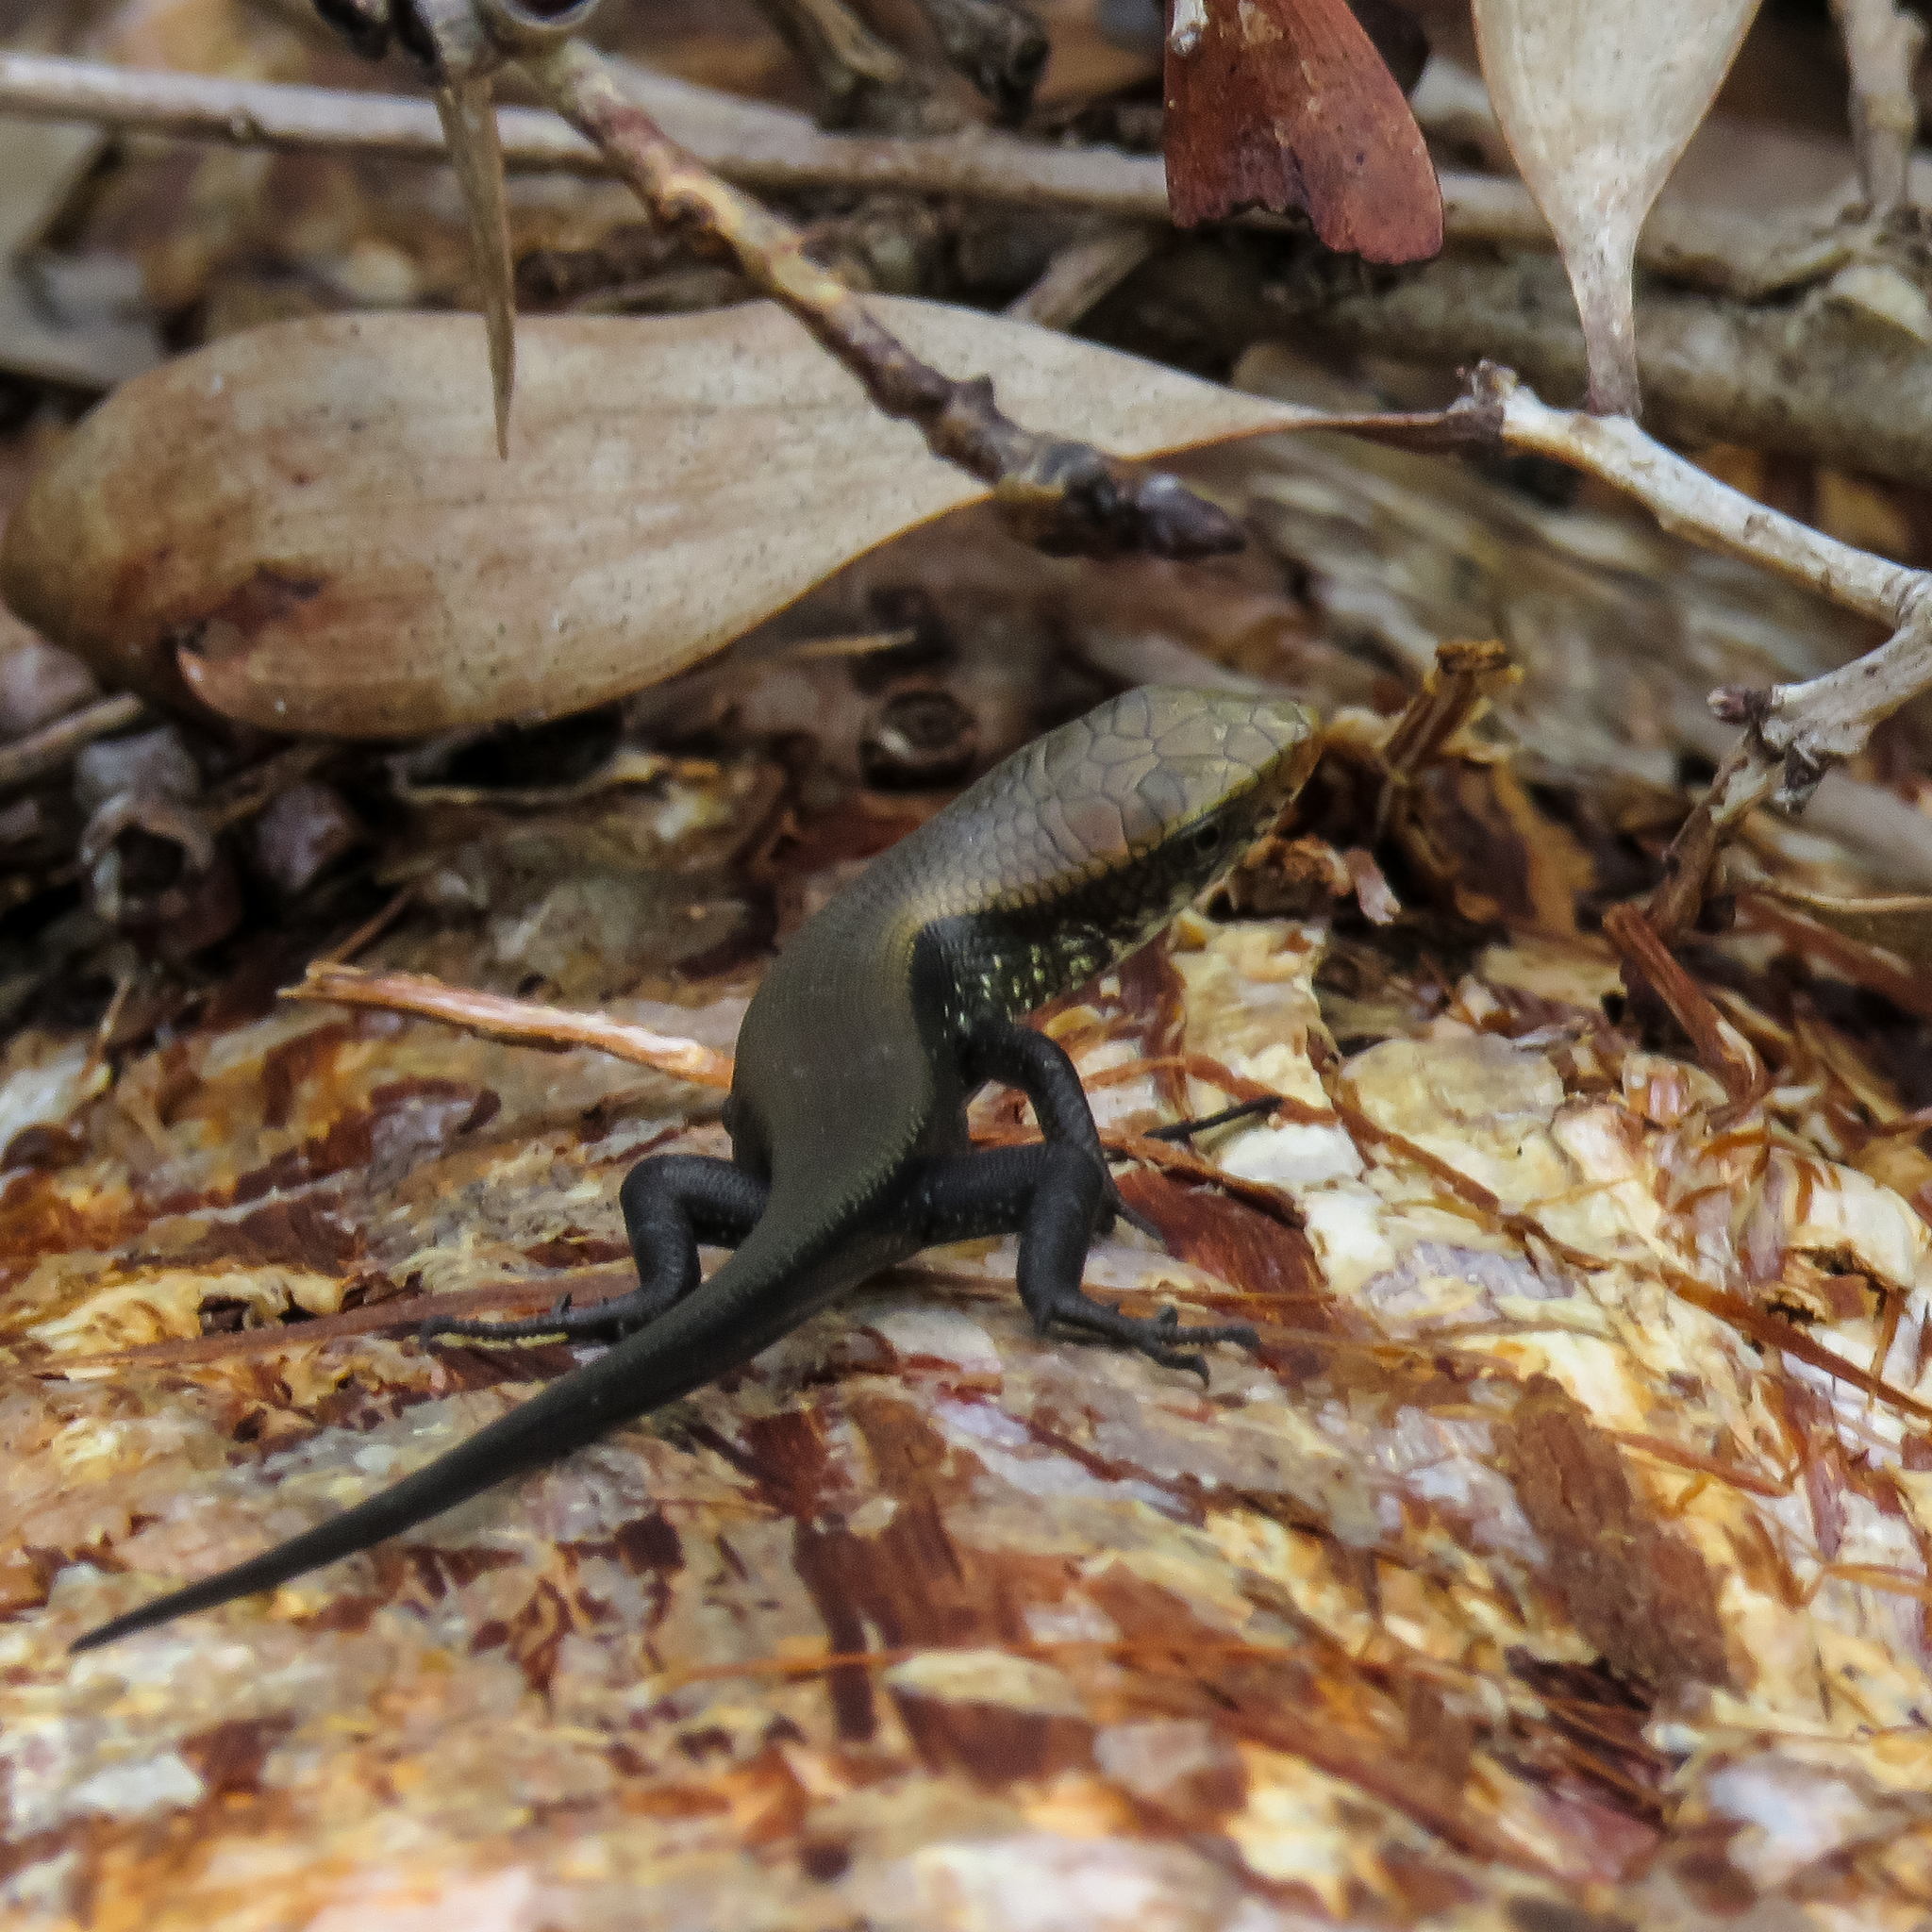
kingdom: Animalia
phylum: Chordata
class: Squamata
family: Scincidae
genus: Eutropis
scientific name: Eutropis multifasciata
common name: Common mabuya
